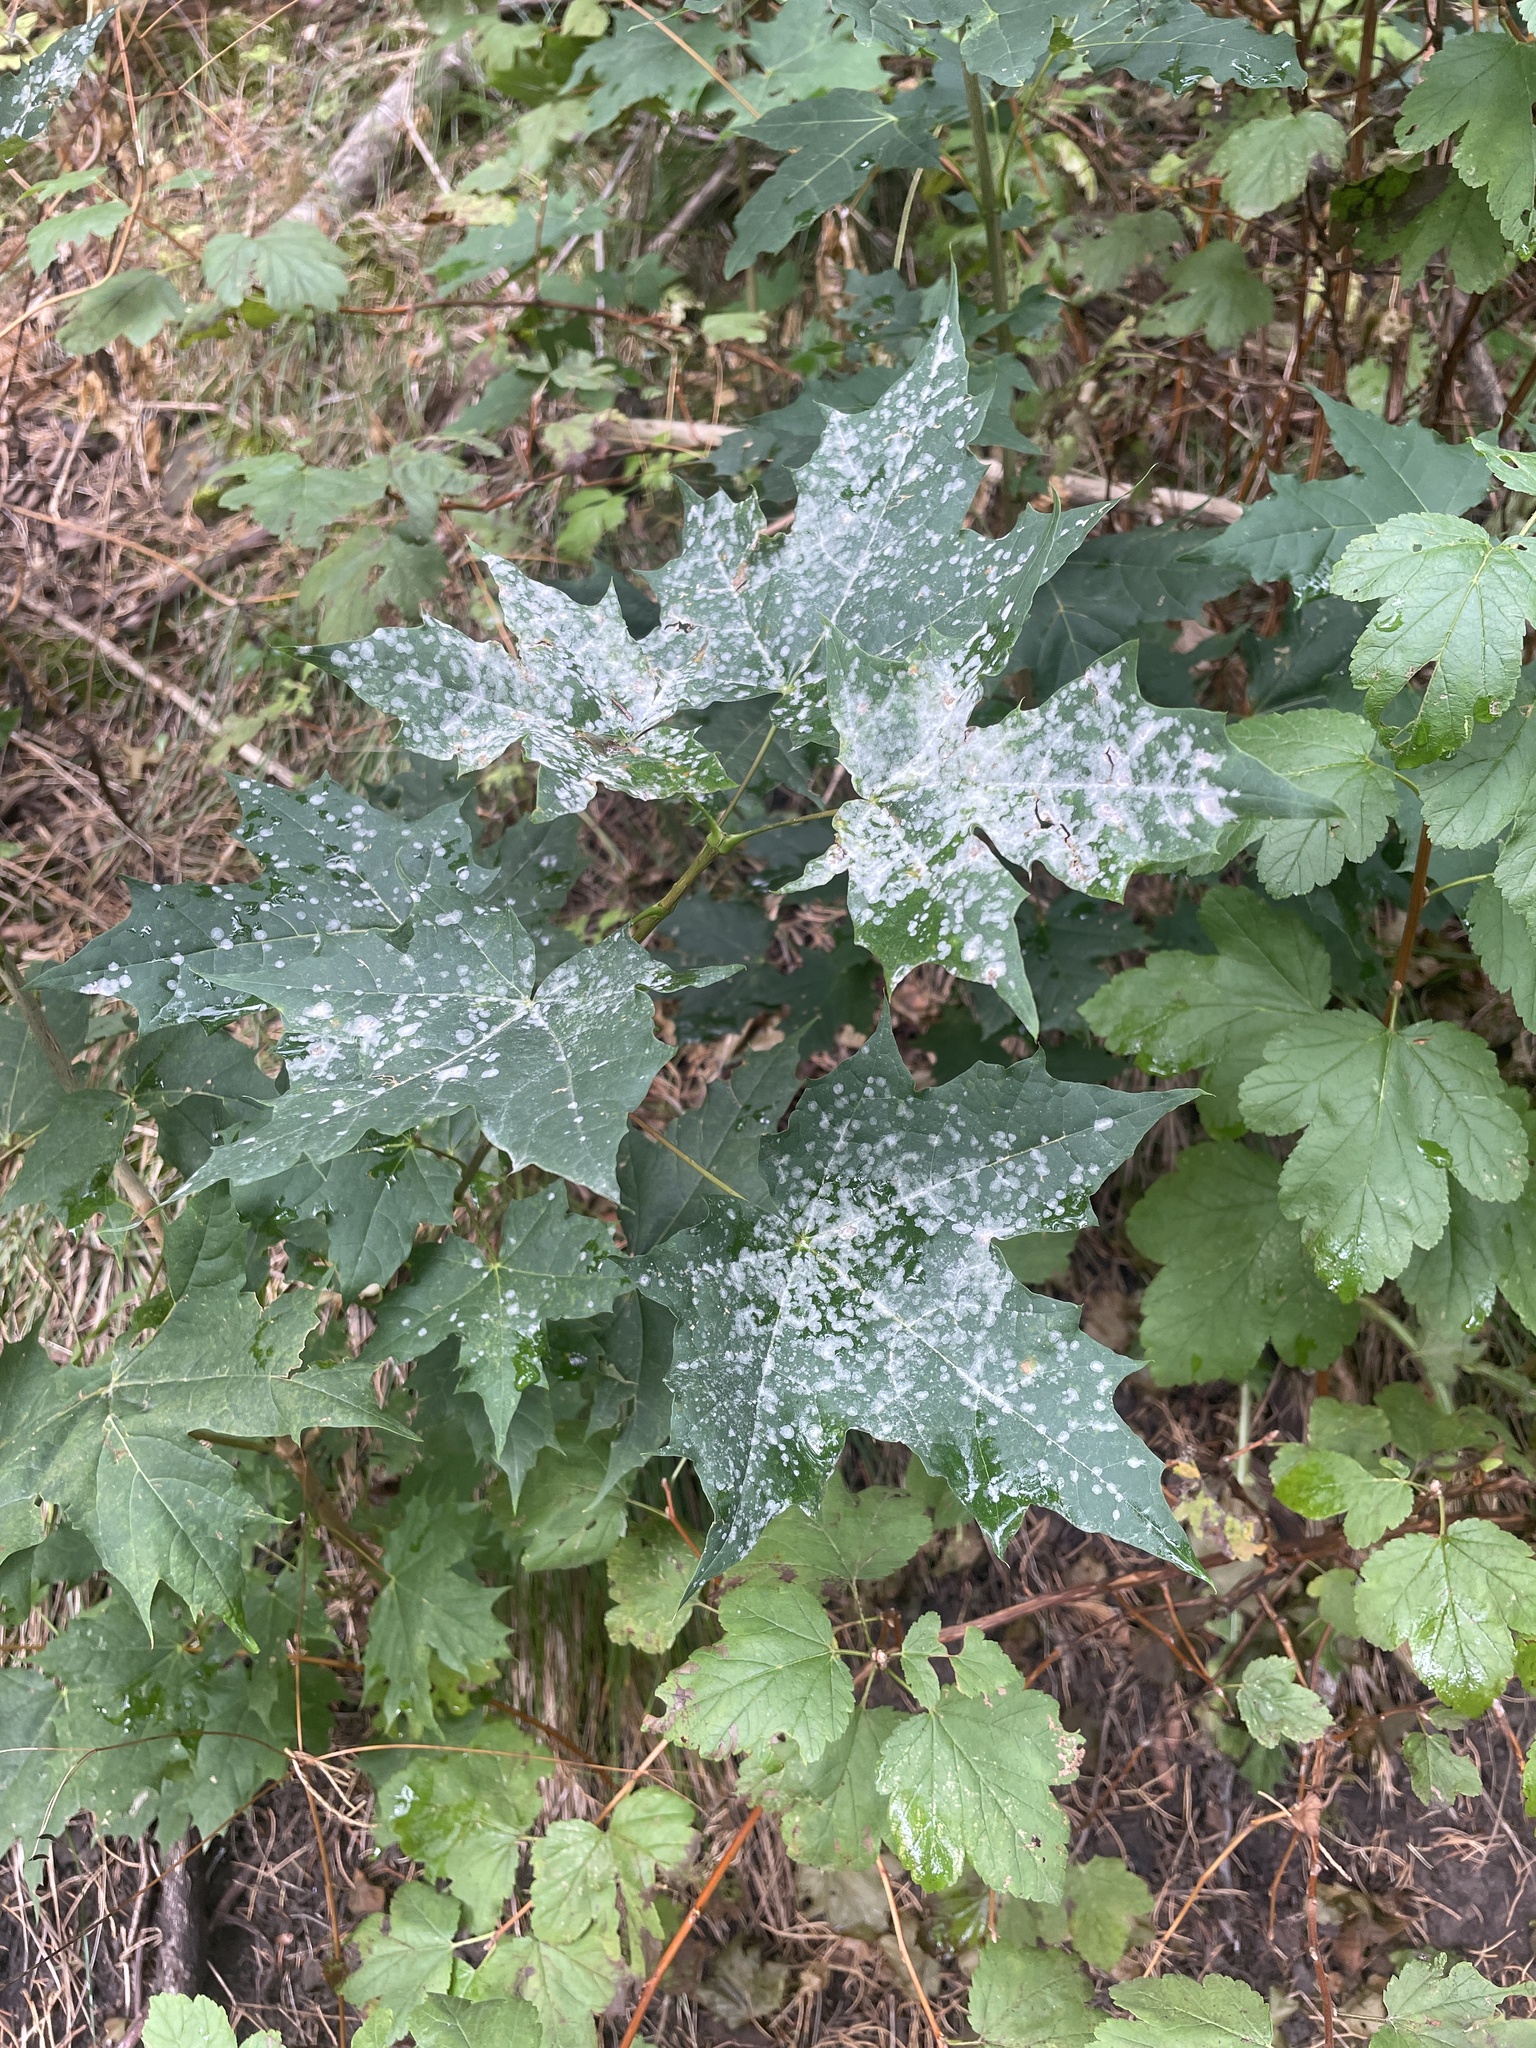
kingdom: Fungi
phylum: Ascomycota
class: Leotiomycetes
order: Helotiales
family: Erysiphaceae
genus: Sawadaea
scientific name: Sawadaea tulasnei
